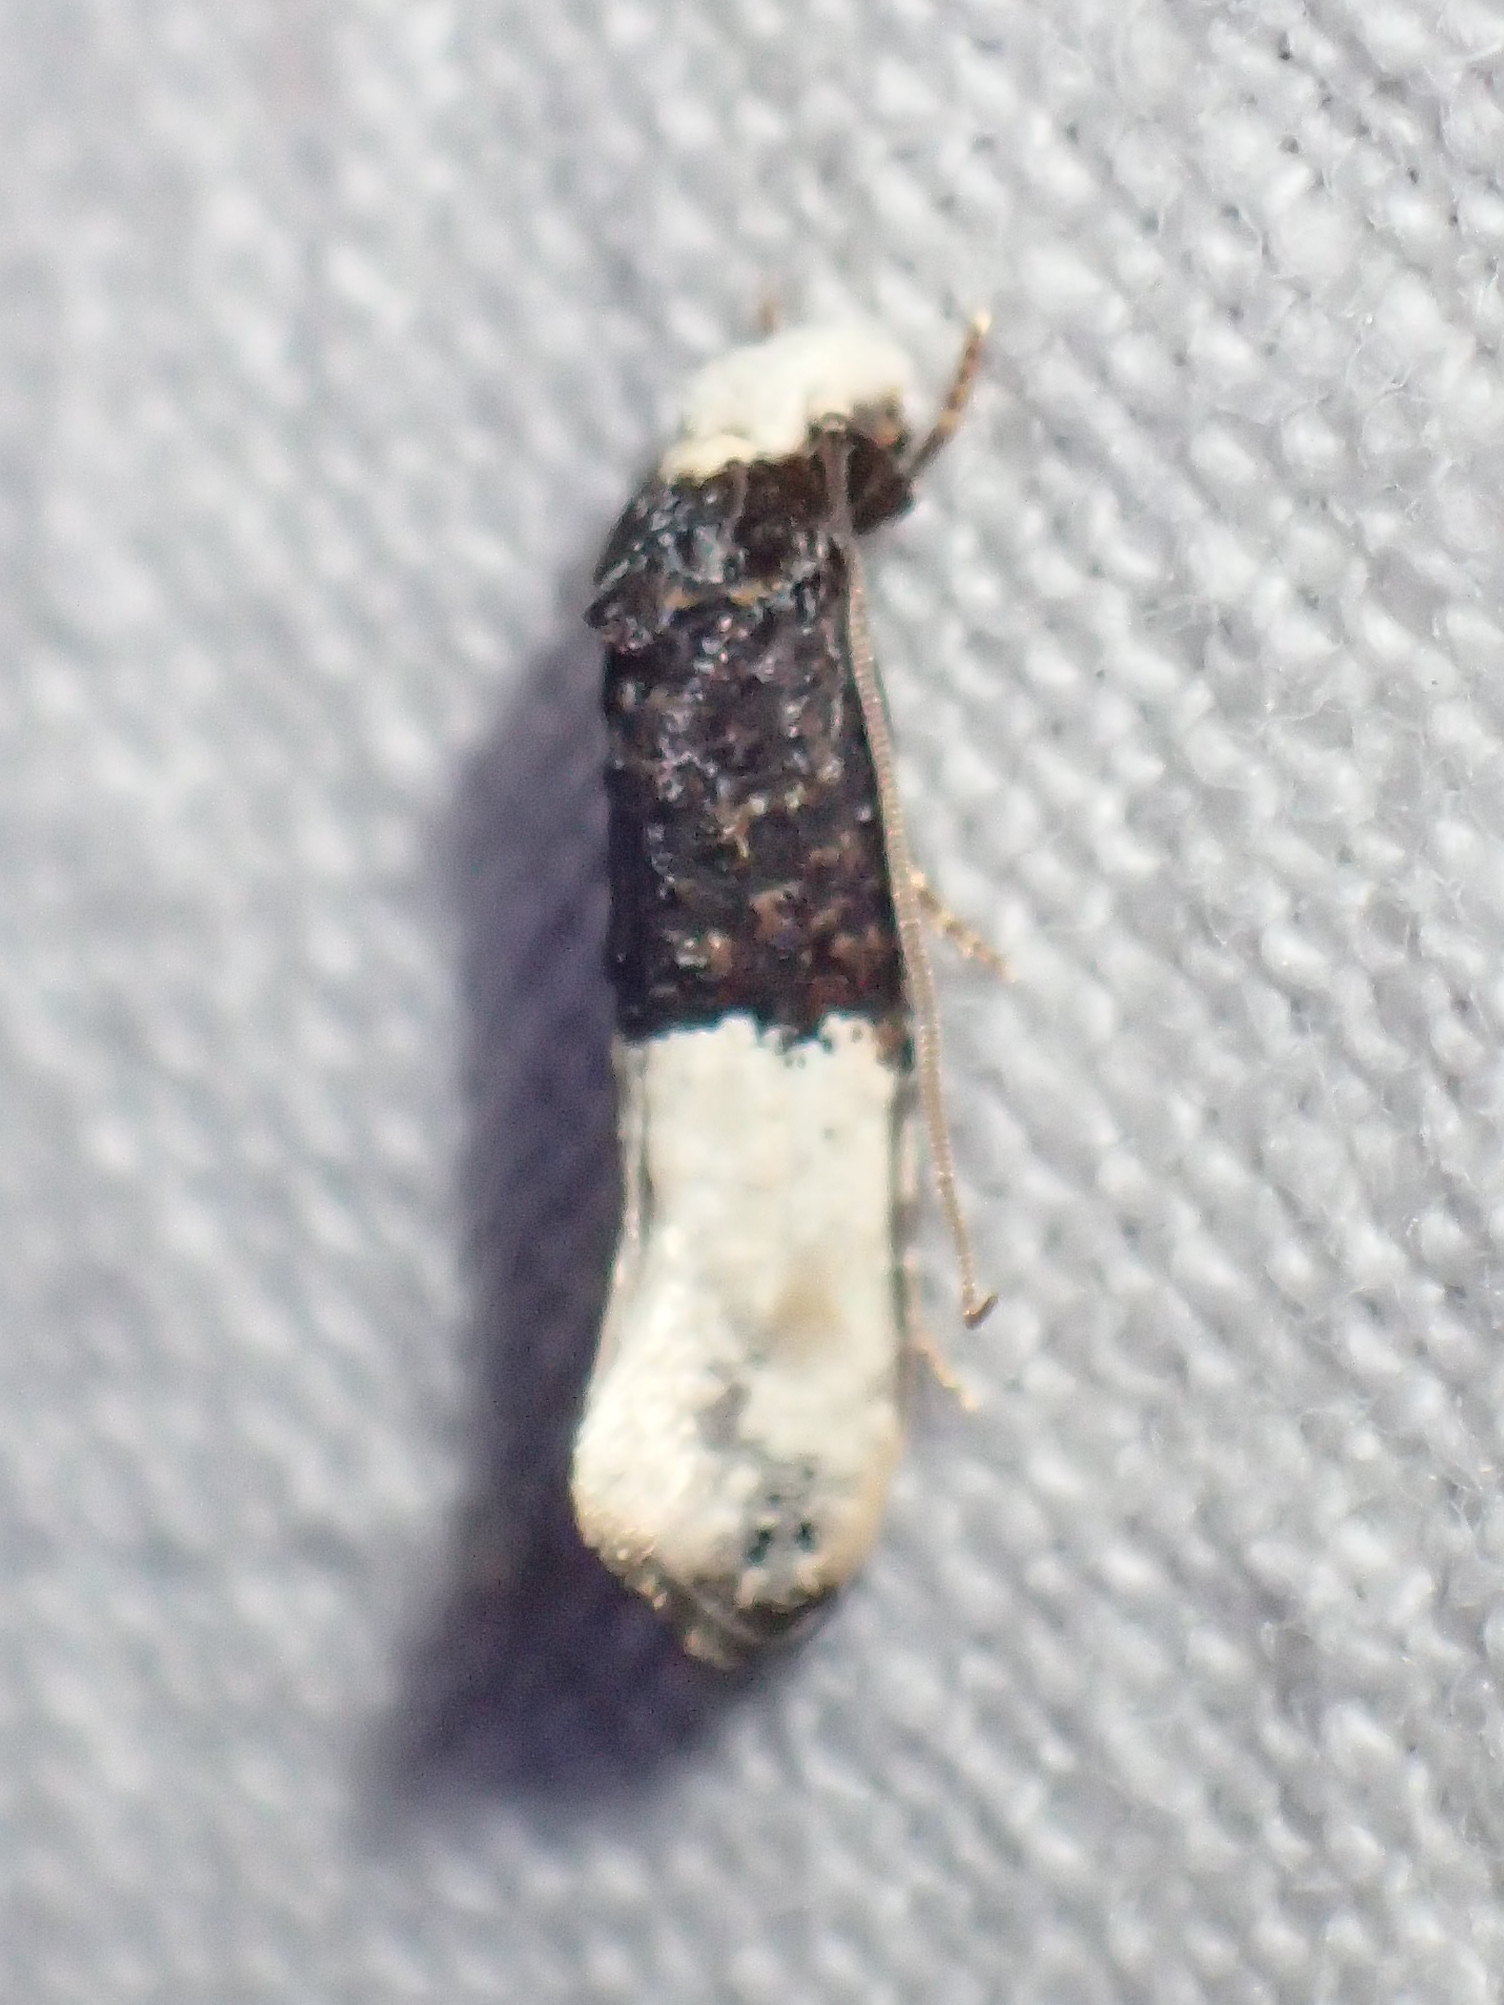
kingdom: Animalia
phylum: Arthropoda
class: Insecta
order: Lepidoptera
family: Tineidae
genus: Trichophaga
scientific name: Trichophaga bipartitella
